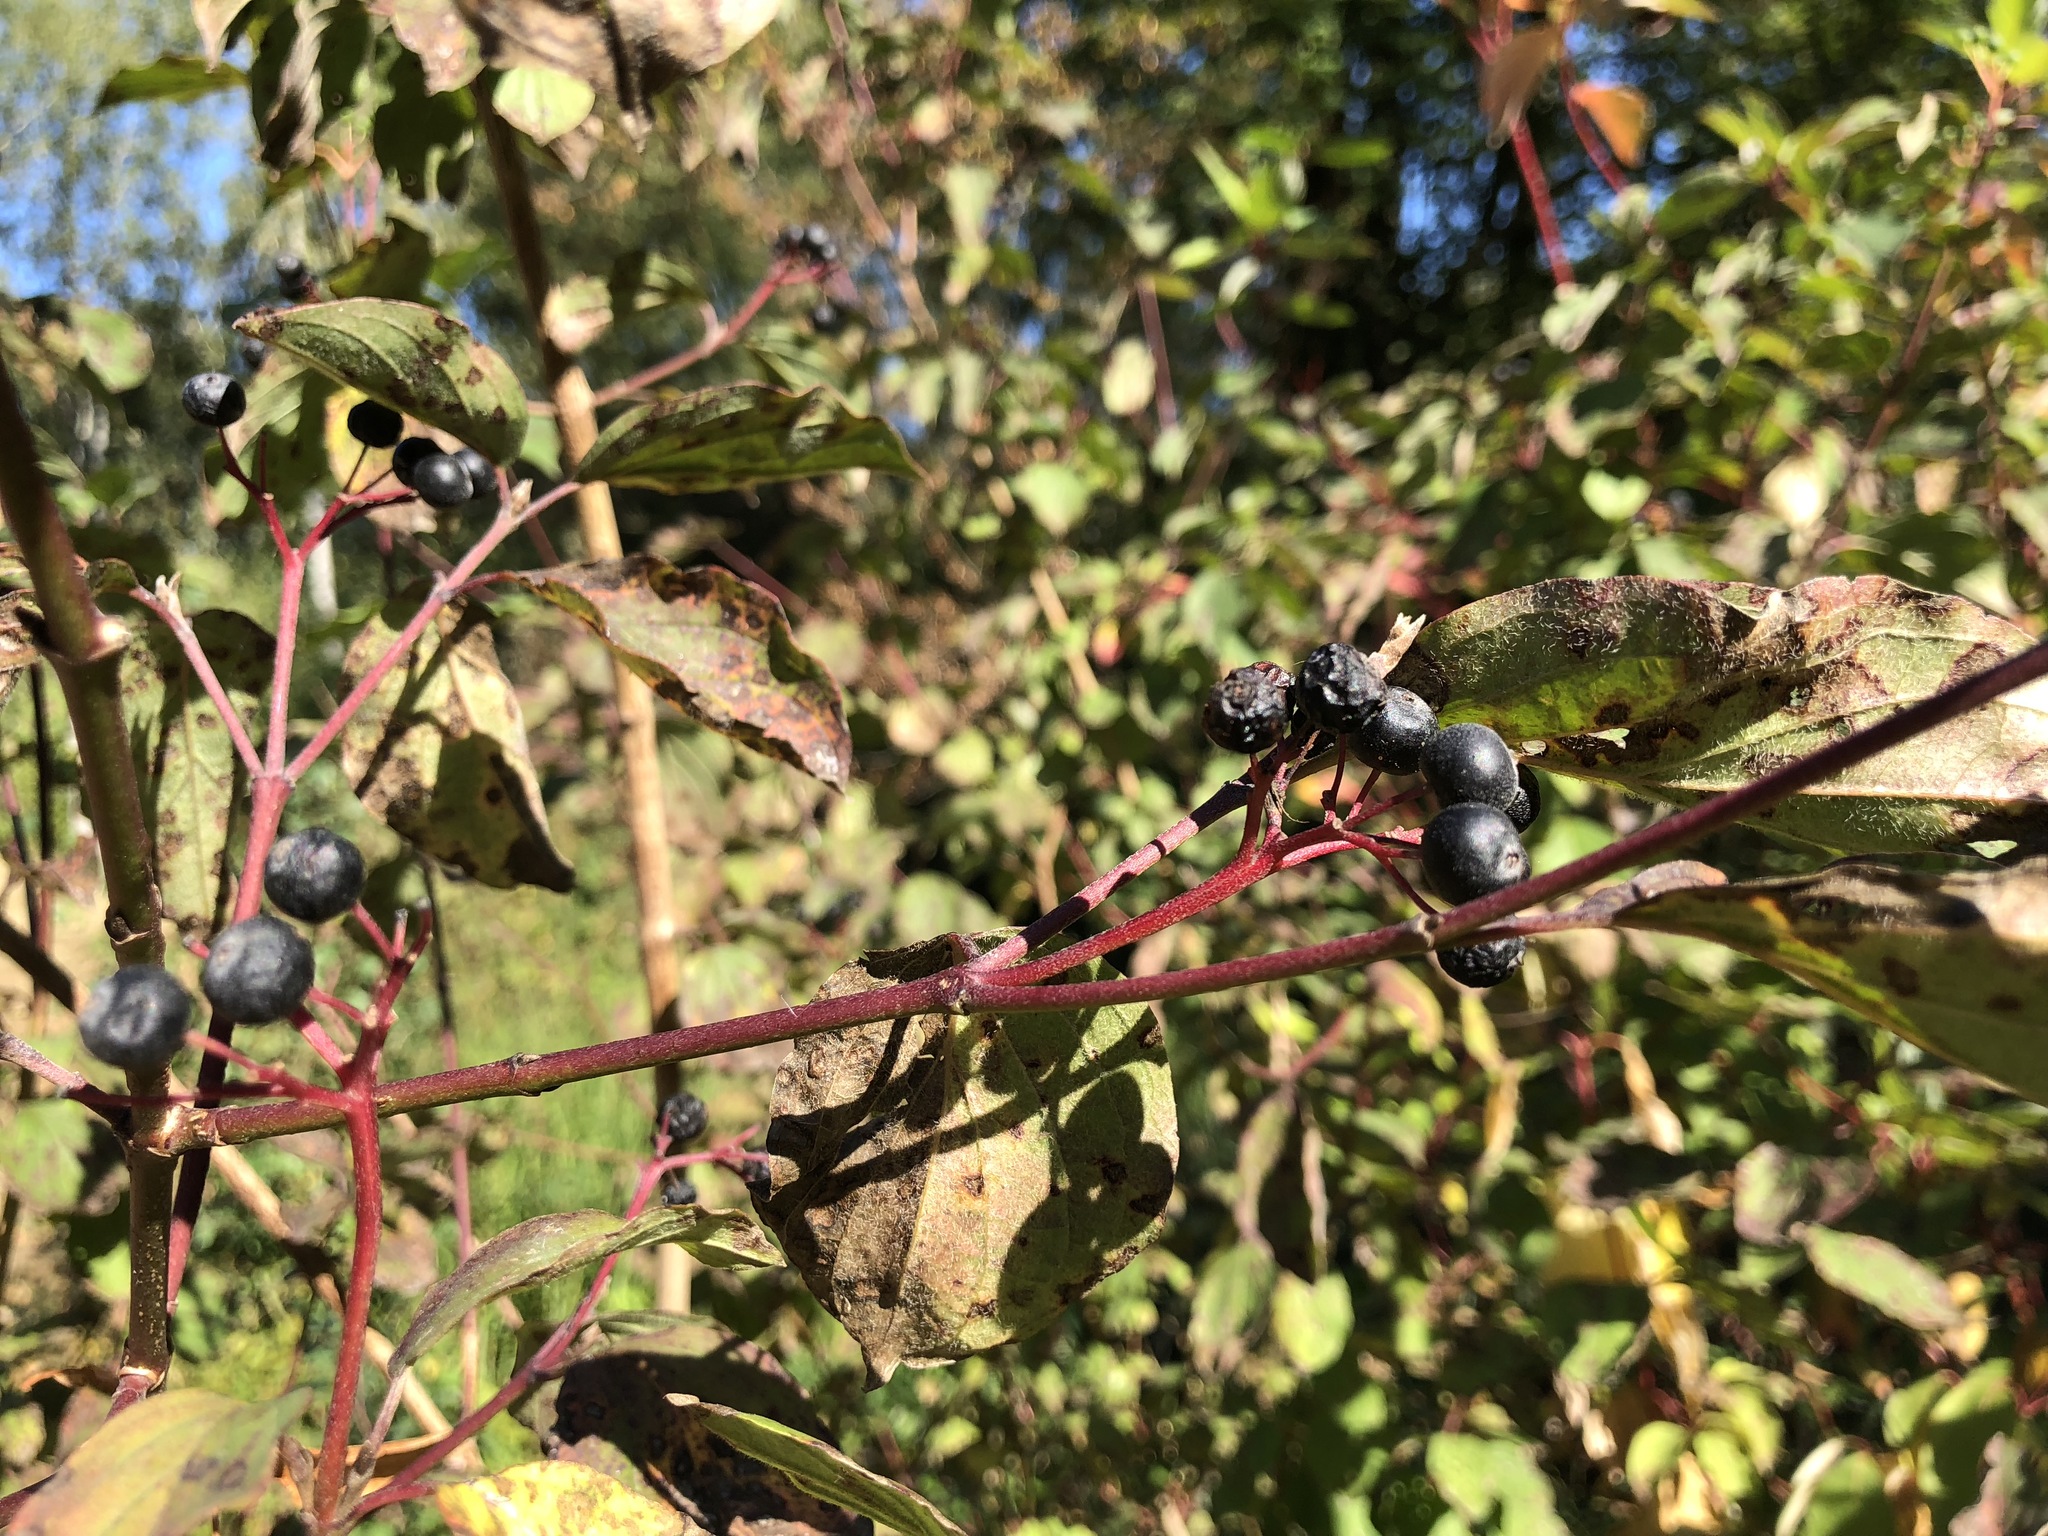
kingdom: Plantae
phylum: Tracheophyta
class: Magnoliopsida
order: Cornales
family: Cornaceae
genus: Cornus
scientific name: Cornus sanguinea
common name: Dogwood
